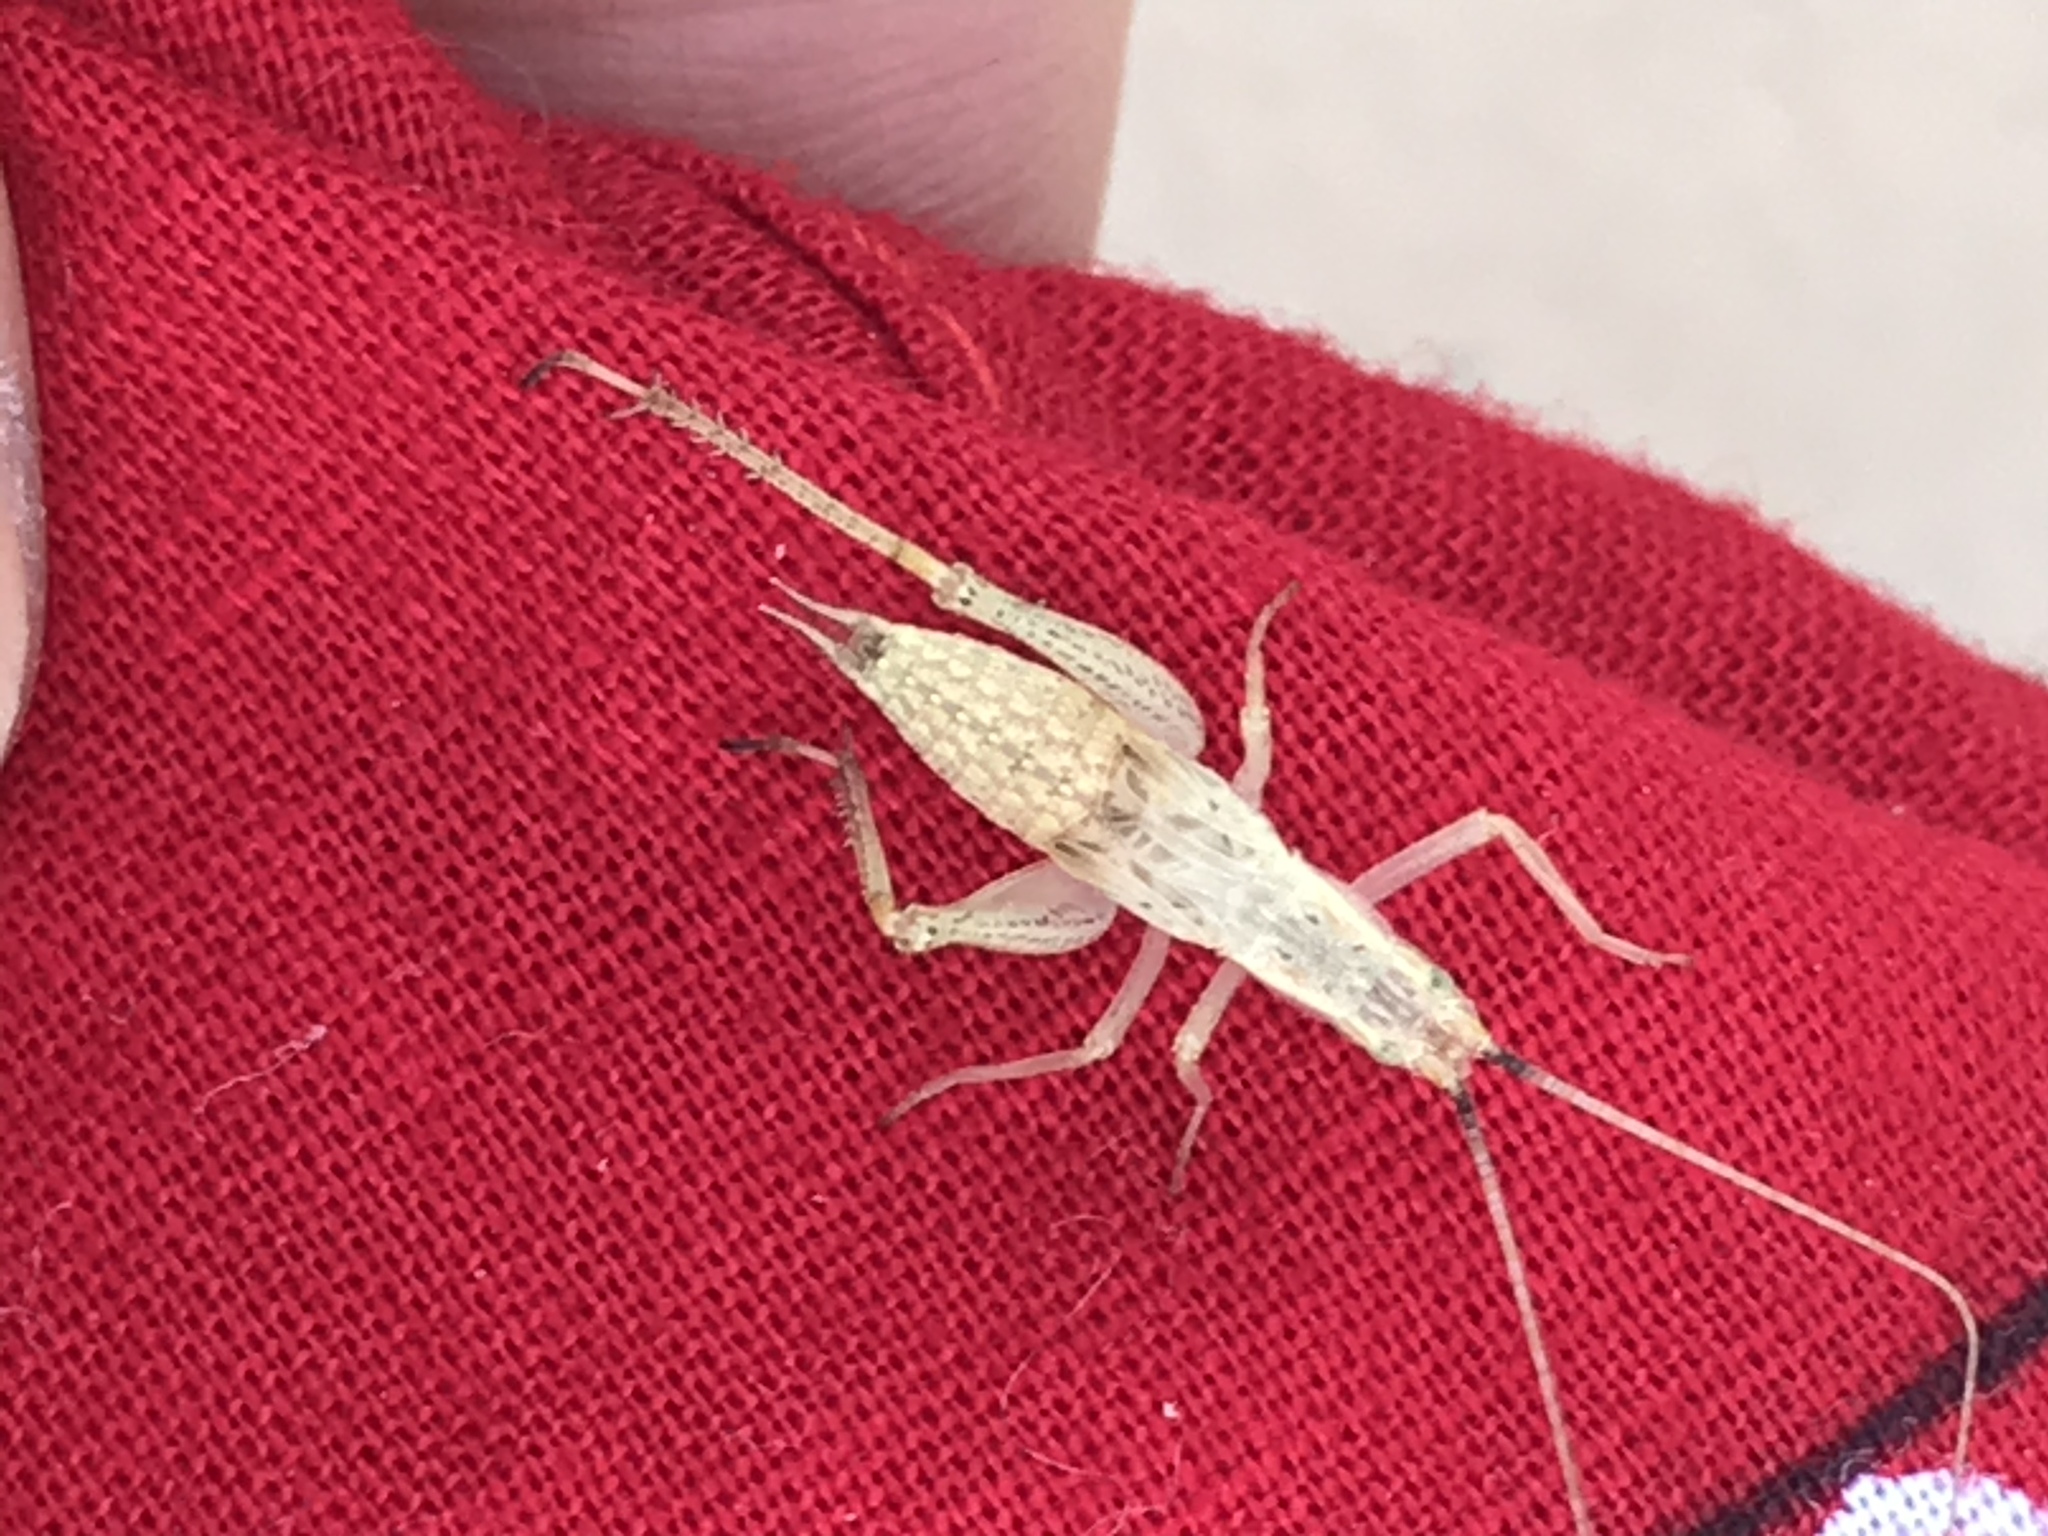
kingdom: Animalia
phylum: Arthropoda
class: Insecta
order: Orthoptera
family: Gryllidae
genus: Oecanthus
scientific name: Oecanthus californicus
